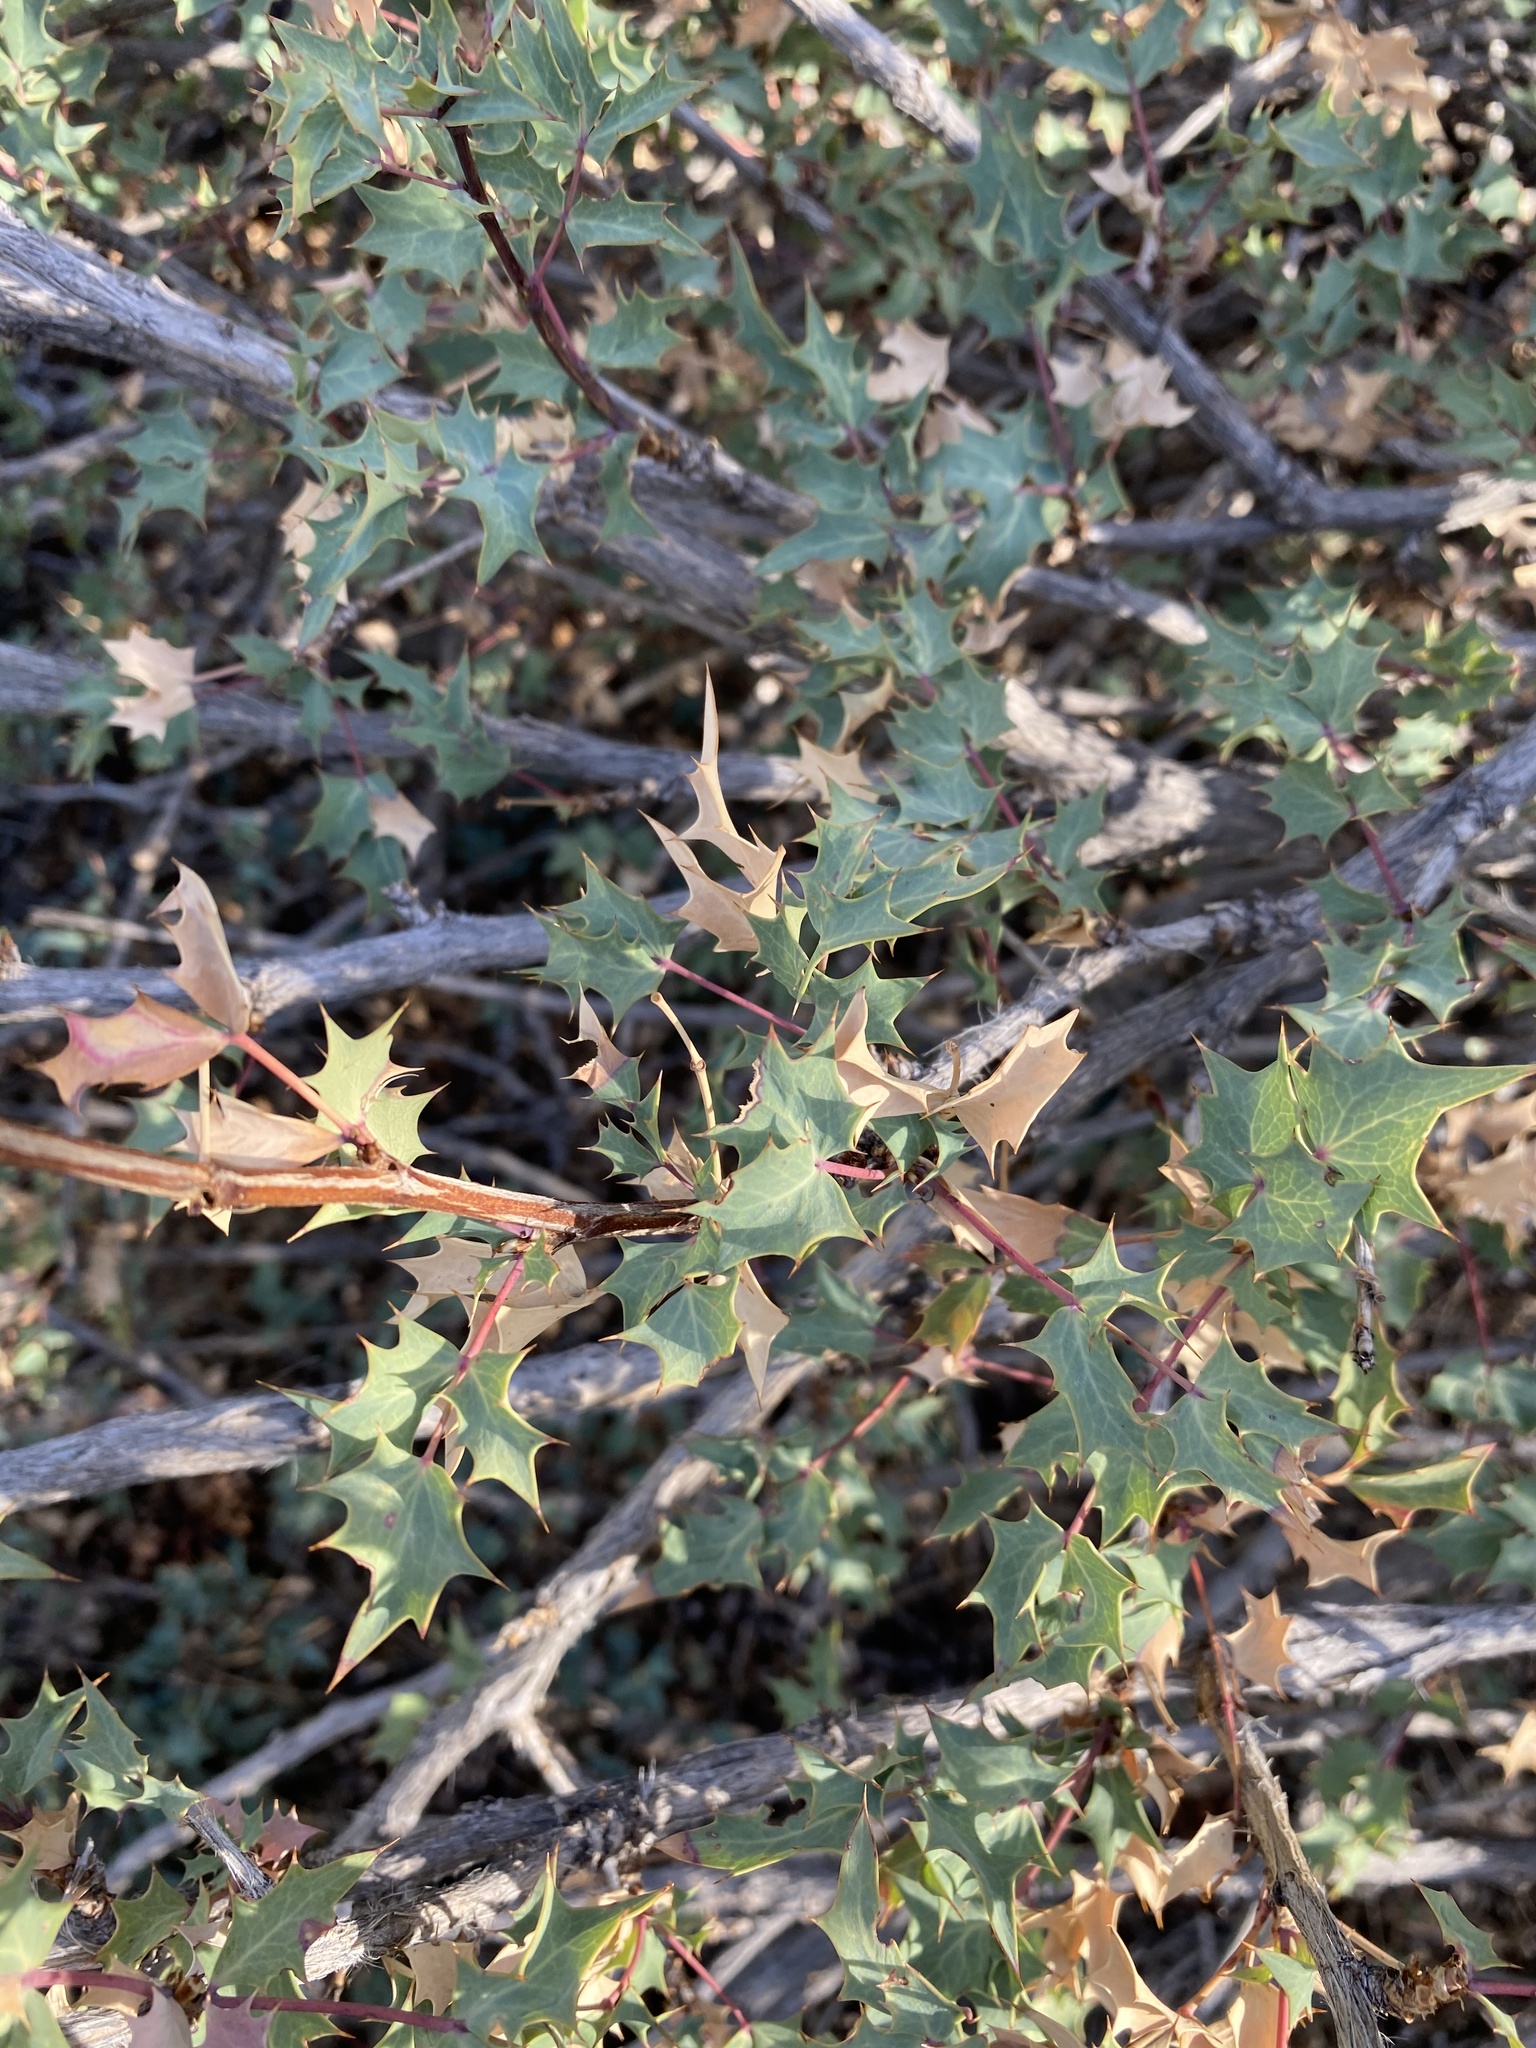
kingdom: Plantae
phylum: Tracheophyta
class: Magnoliopsida
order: Ranunculales
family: Berberidaceae
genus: Alloberberis
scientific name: Alloberberis fremontii
